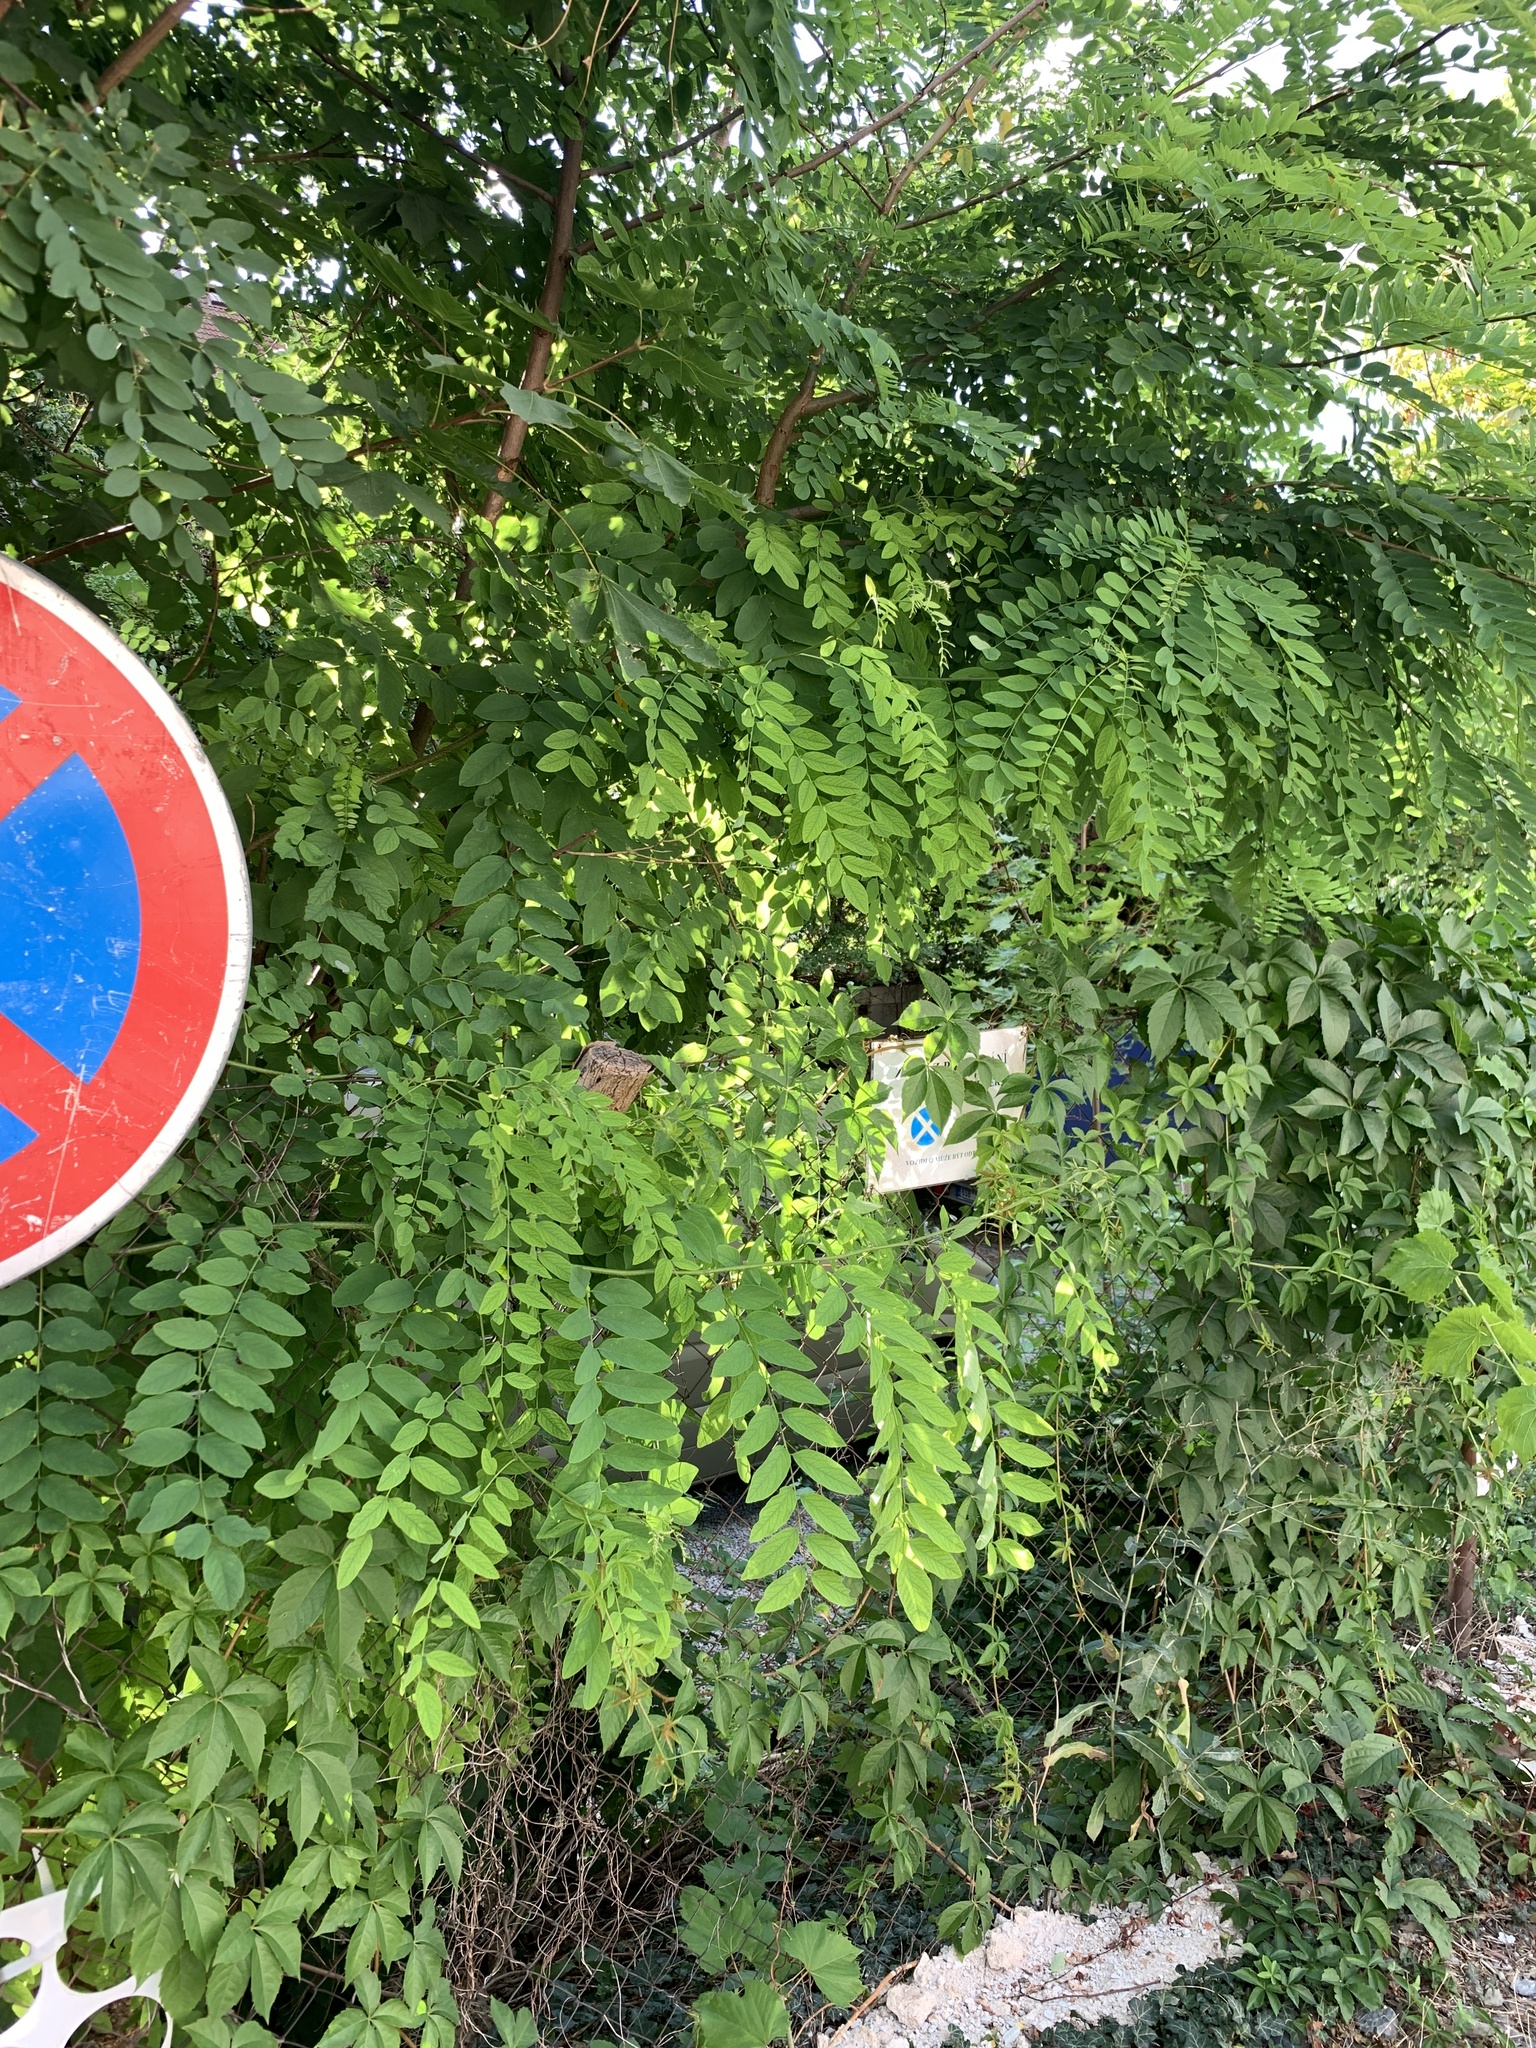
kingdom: Plantae
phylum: Tracheophyta
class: Magnoliopsida
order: Fabales
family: Fabaceae
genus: Robinia
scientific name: Robinia pseudoacacia
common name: Black locust
